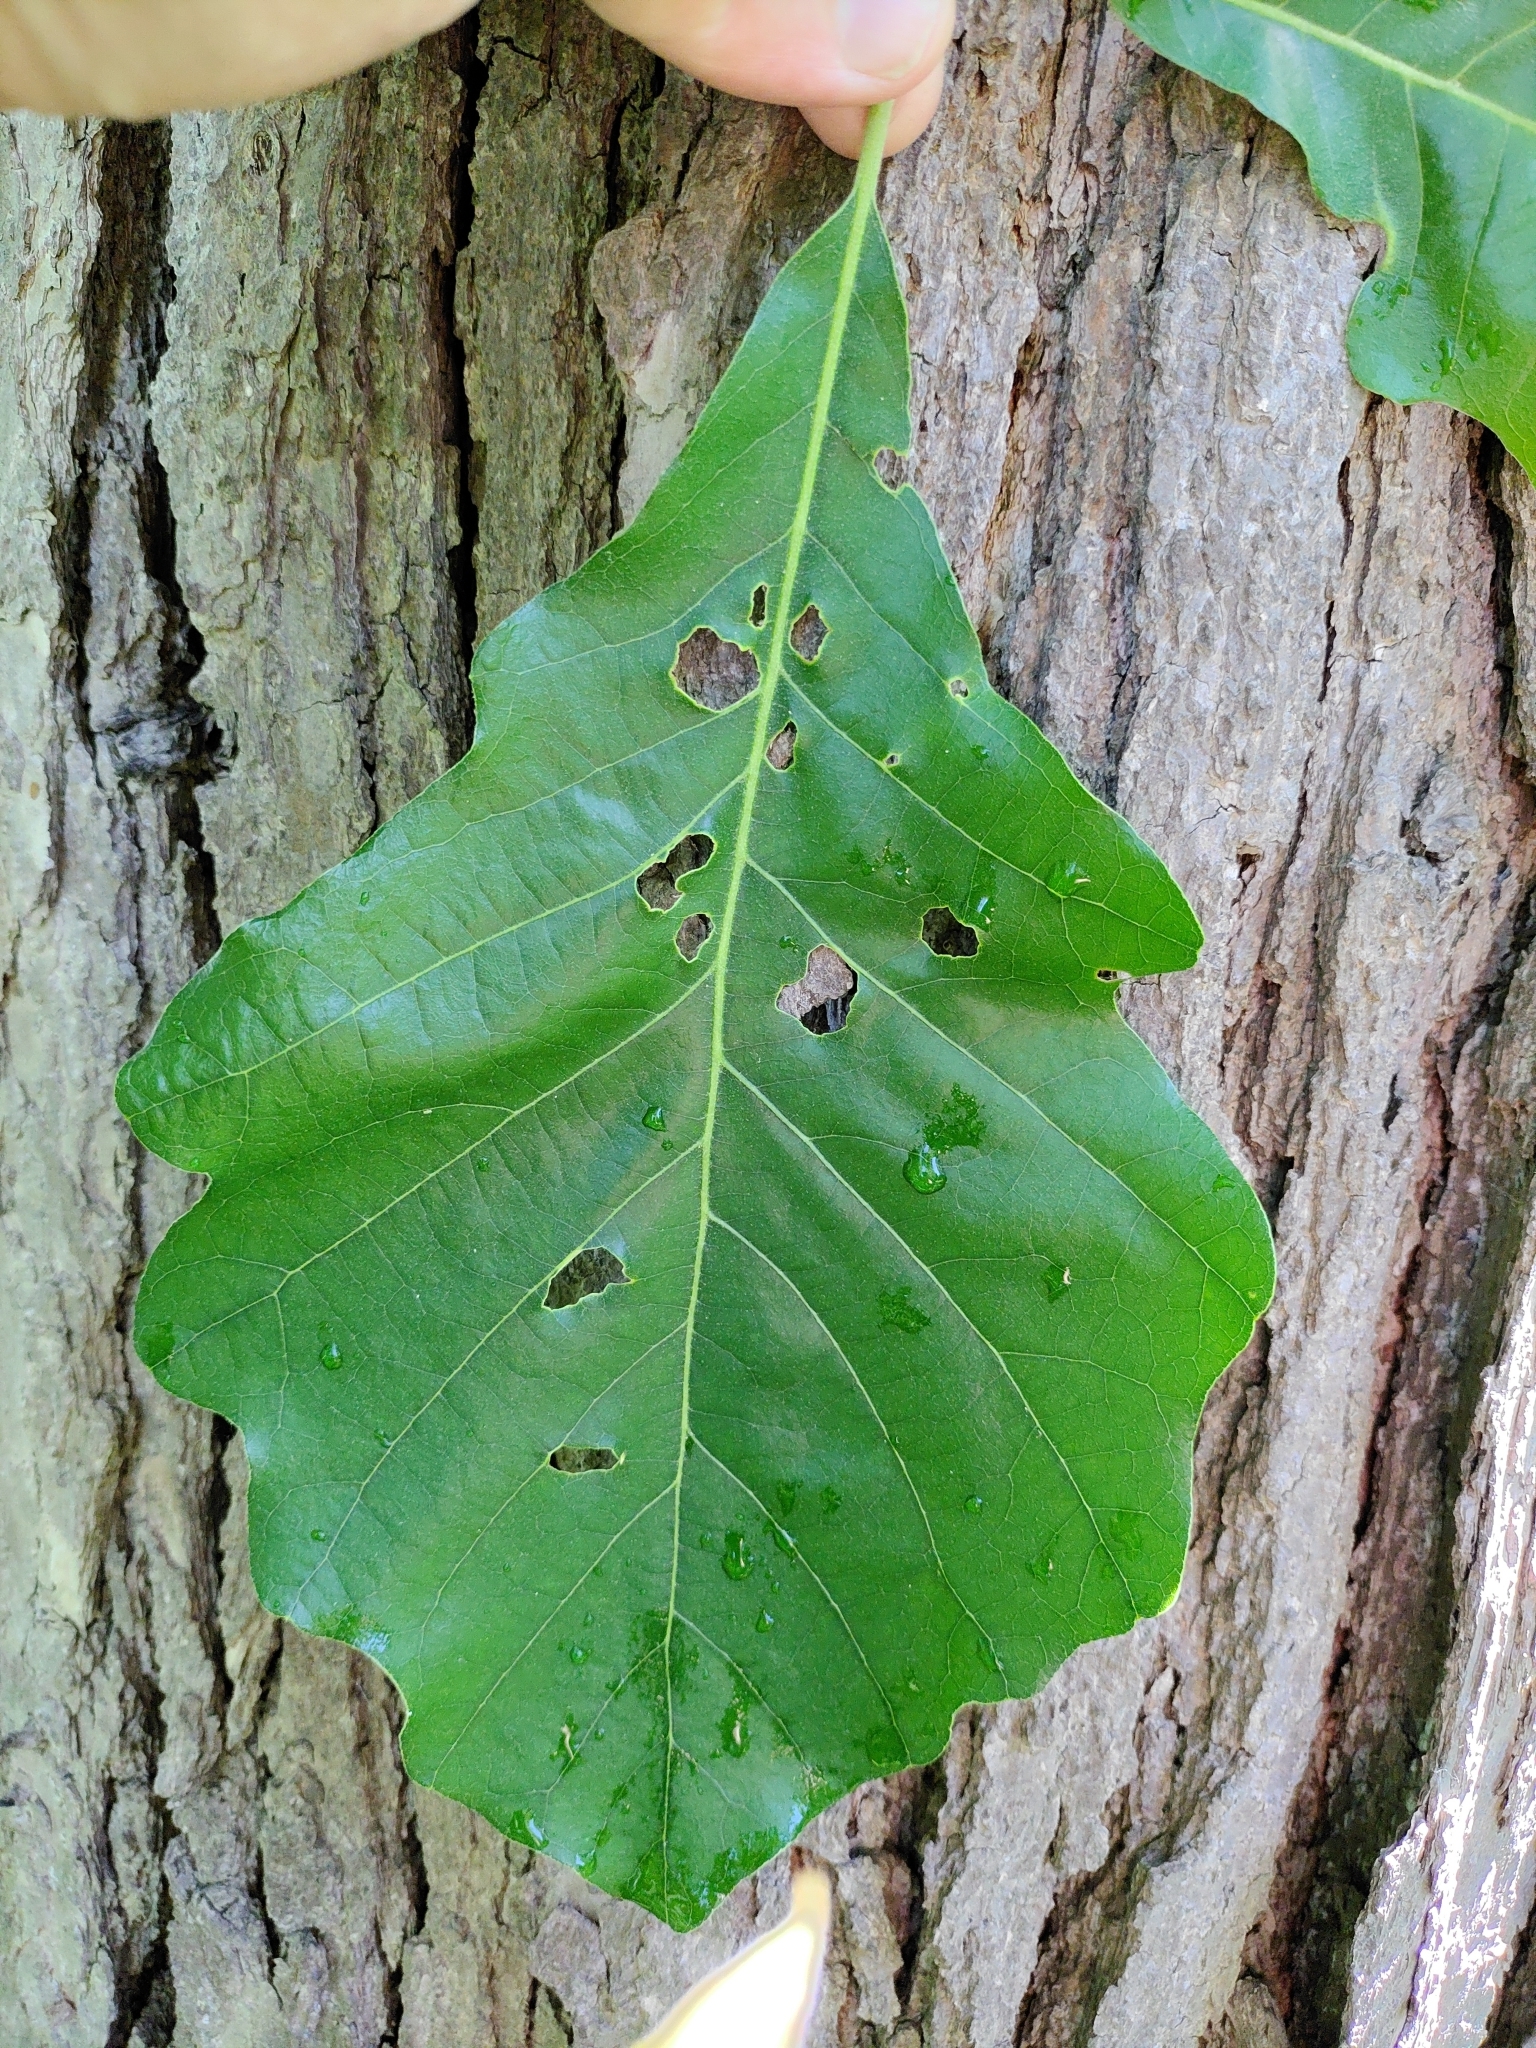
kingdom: Plantae
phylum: Tracheophyta
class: Magnoliopsida
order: Fagales
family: Fagaceae
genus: Quercus
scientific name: Quercus bicolor
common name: Swamp white oak
